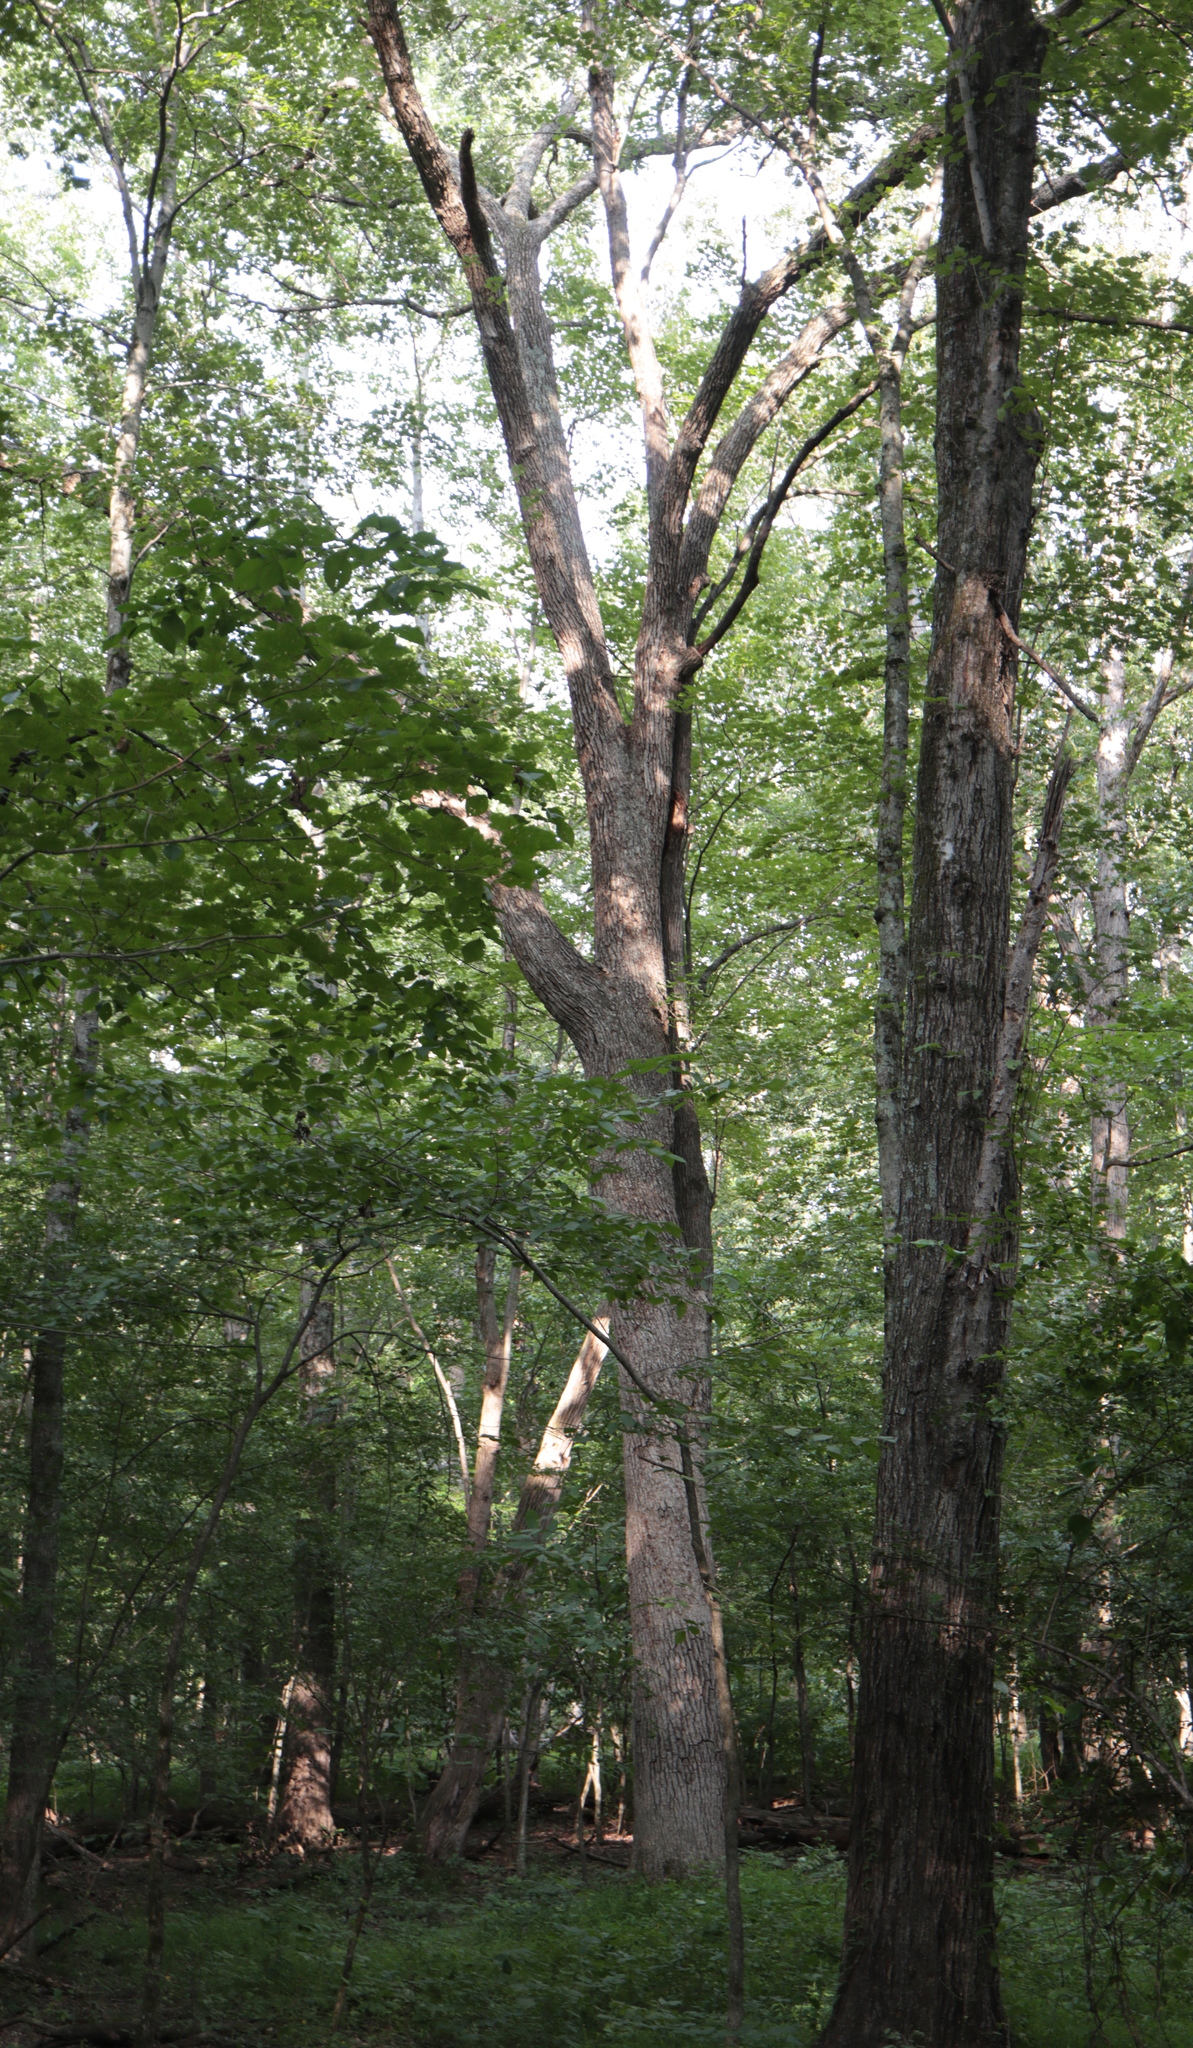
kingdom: Plantae
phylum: Tracheophyta
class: Magnoliopsida
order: Fagales
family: Fagaceae
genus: Quercus
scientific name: Quercus bicolor
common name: Swamp white oak
